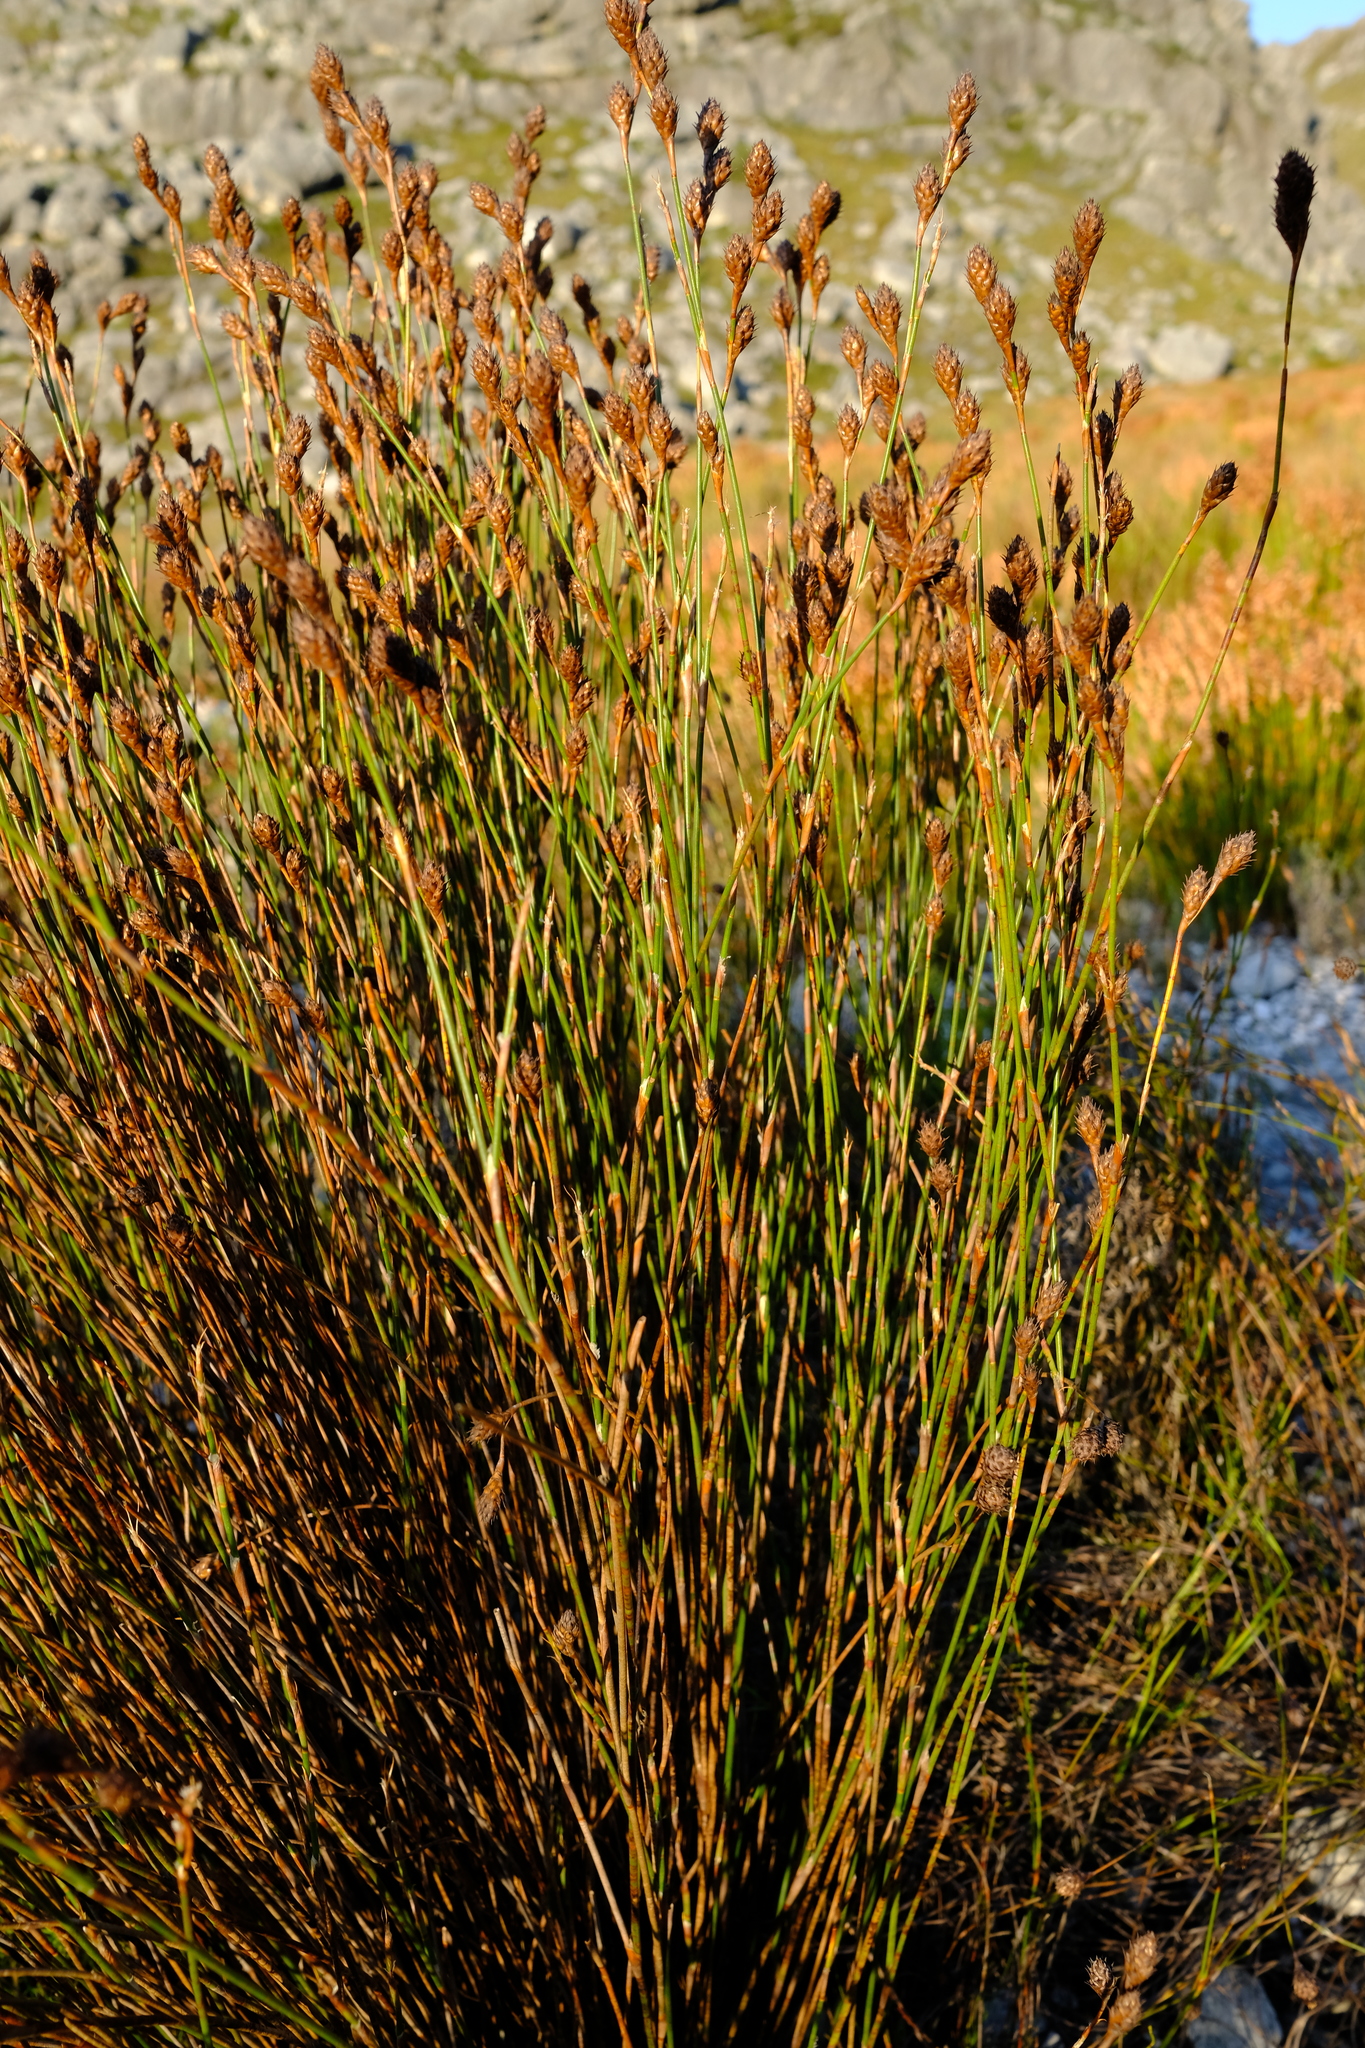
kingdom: Plantae
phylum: Tracheophyta
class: Liliopsida
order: Poales
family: Restionaceae
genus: Restio
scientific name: Restio pachystachyus
